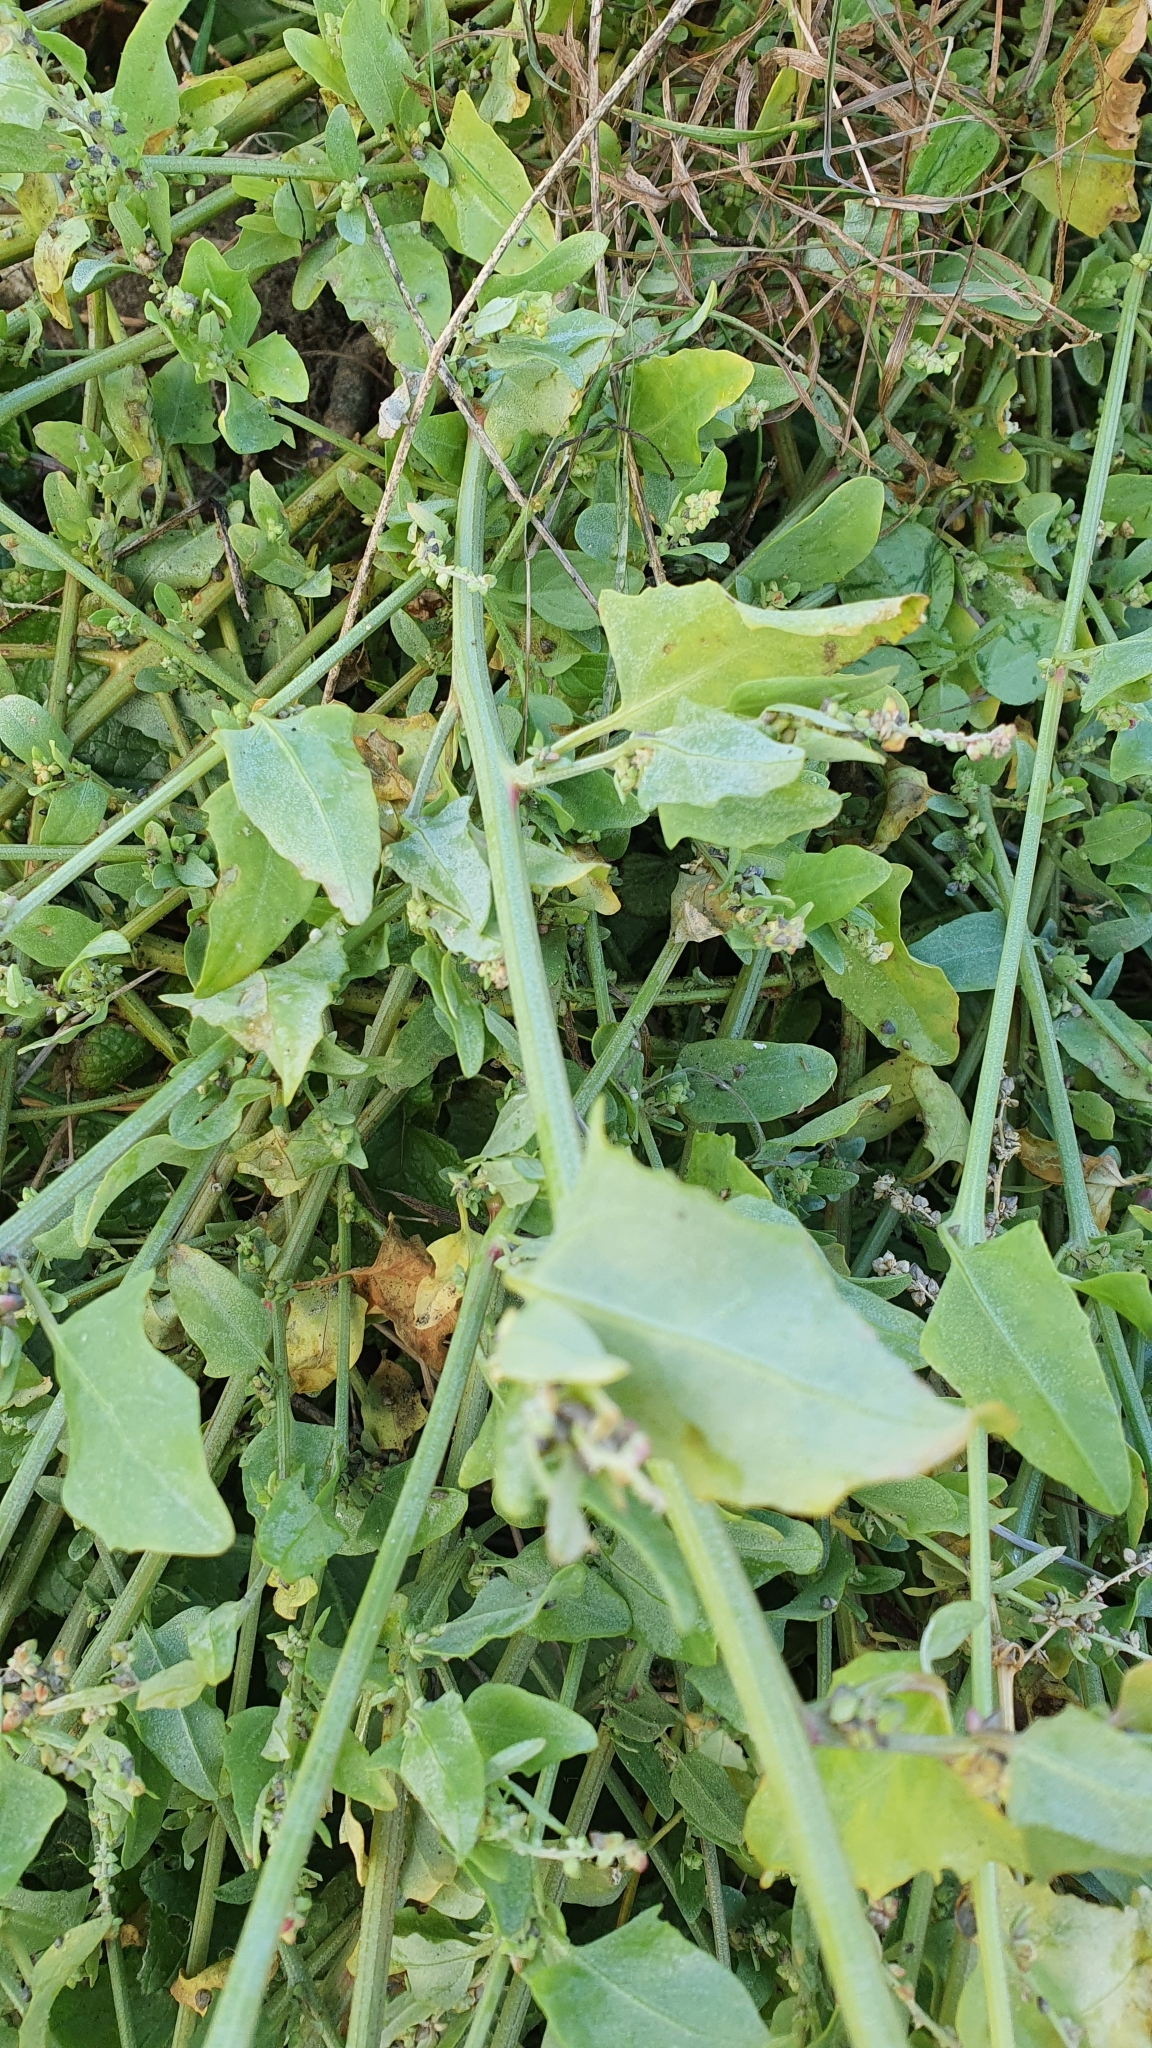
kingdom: Plantae
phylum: Tracheophyta
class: Magnoliopsida
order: Caryophyllales
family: Amaranthaceae
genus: Atriplex
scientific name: Atriplex prostrata
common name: Spear-leaved orache
